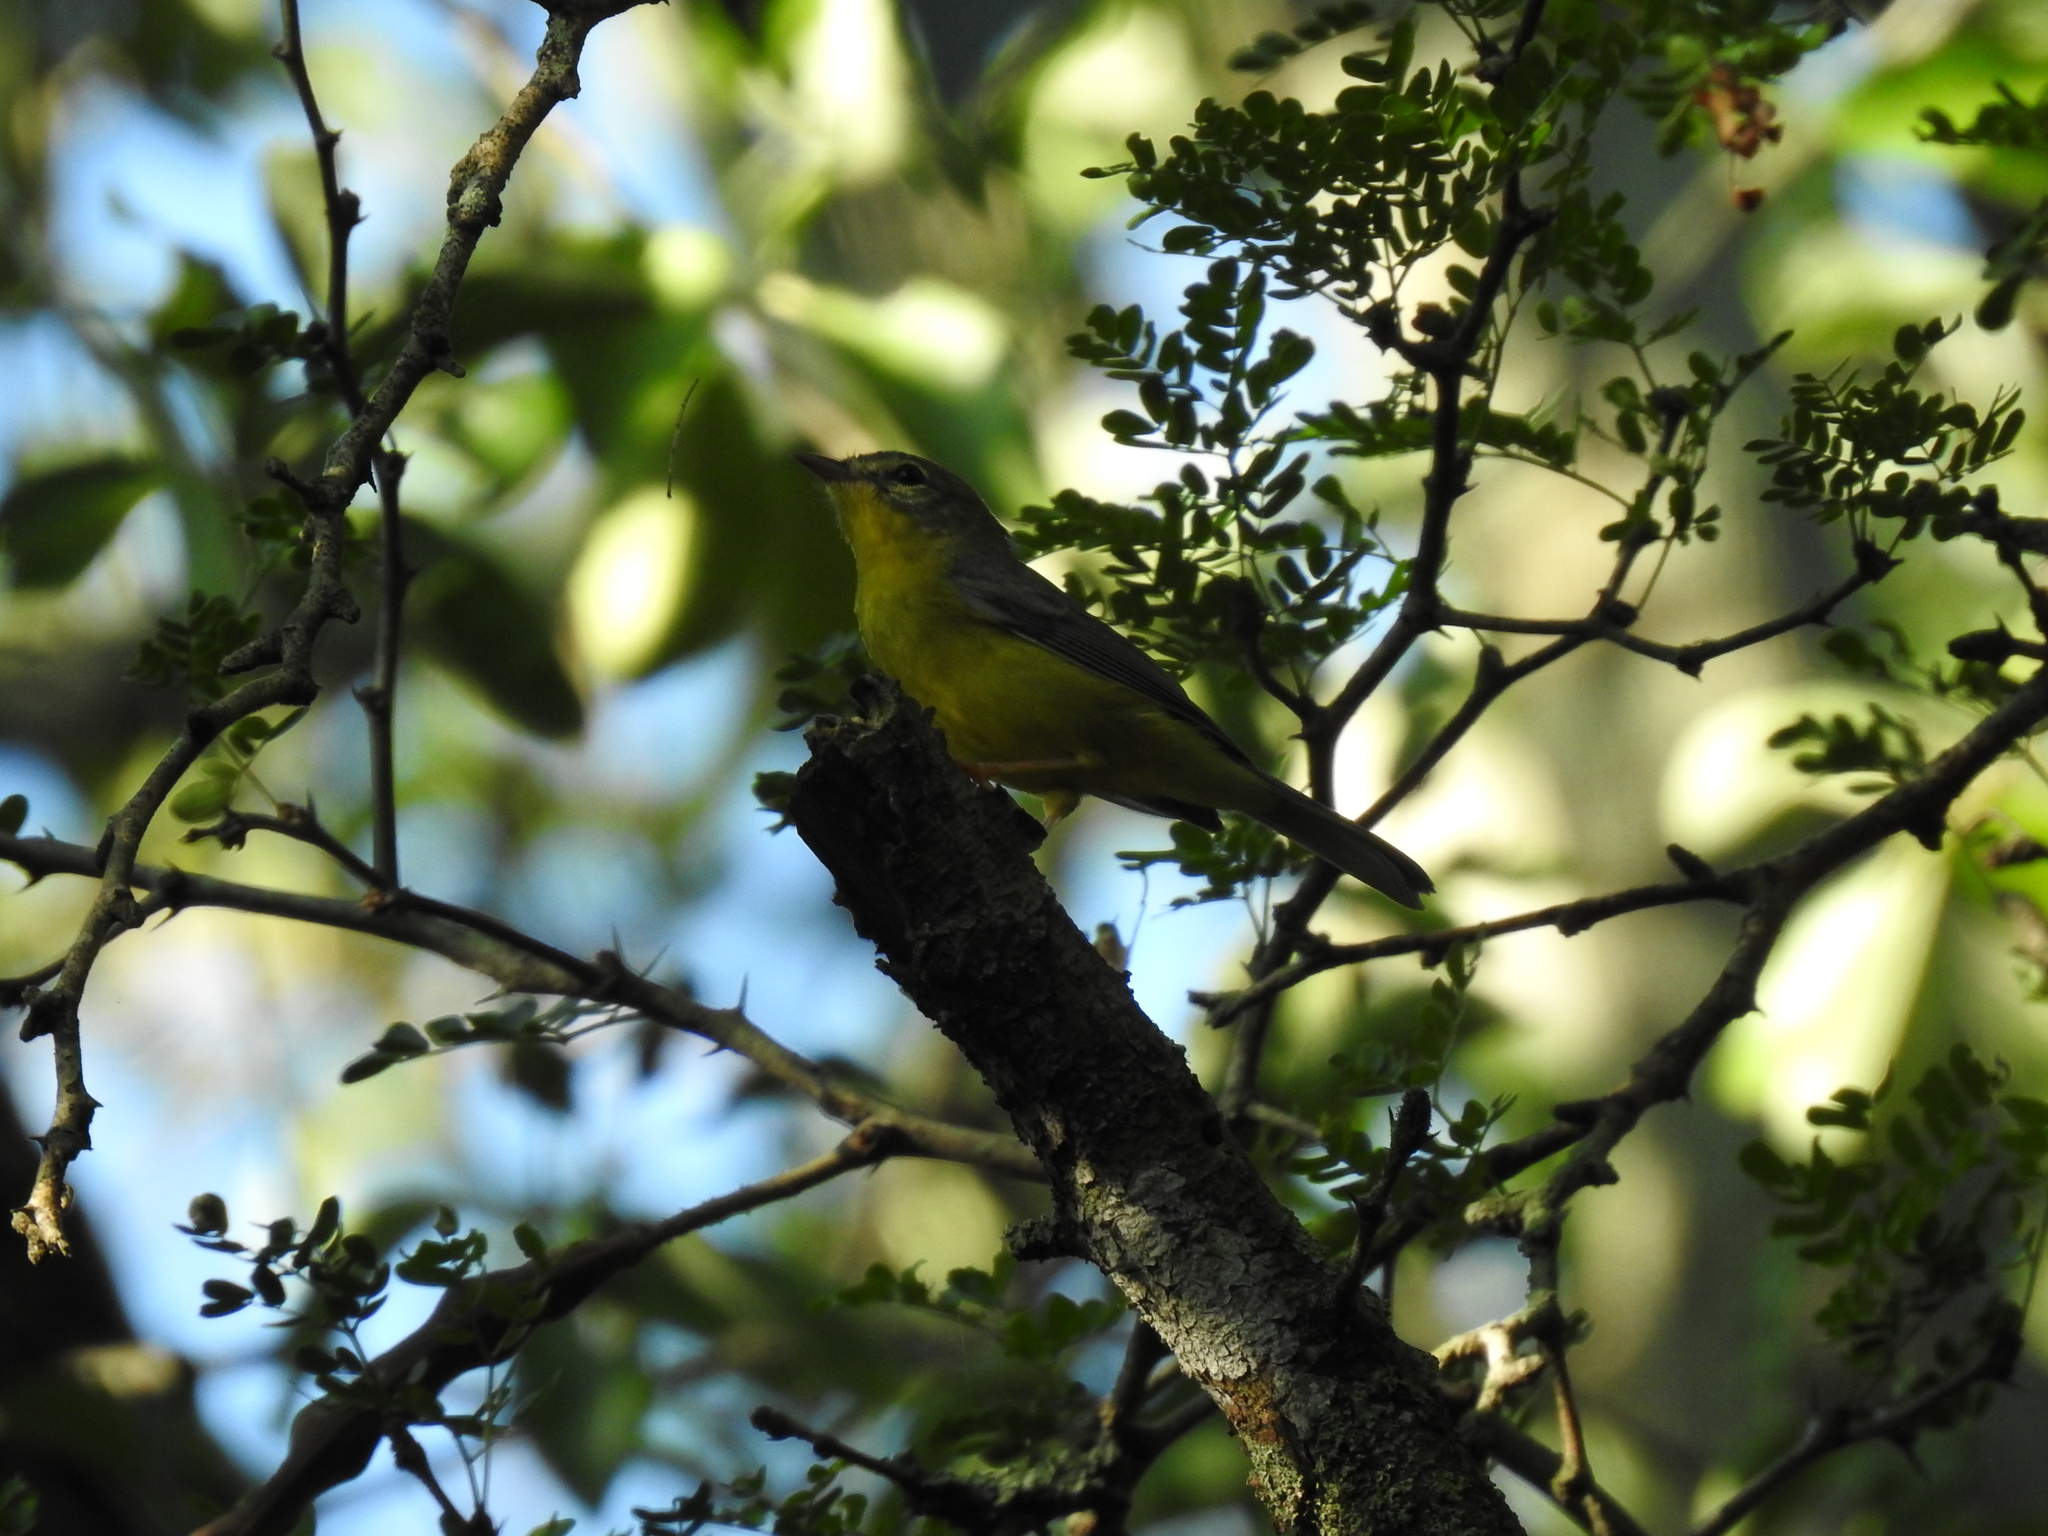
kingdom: Animalia
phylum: Chordata
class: Aves
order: Passeriformes
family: Parulidae
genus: Basileuterus
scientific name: Basileuterus culicivorus
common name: Golden-crowned warbler
